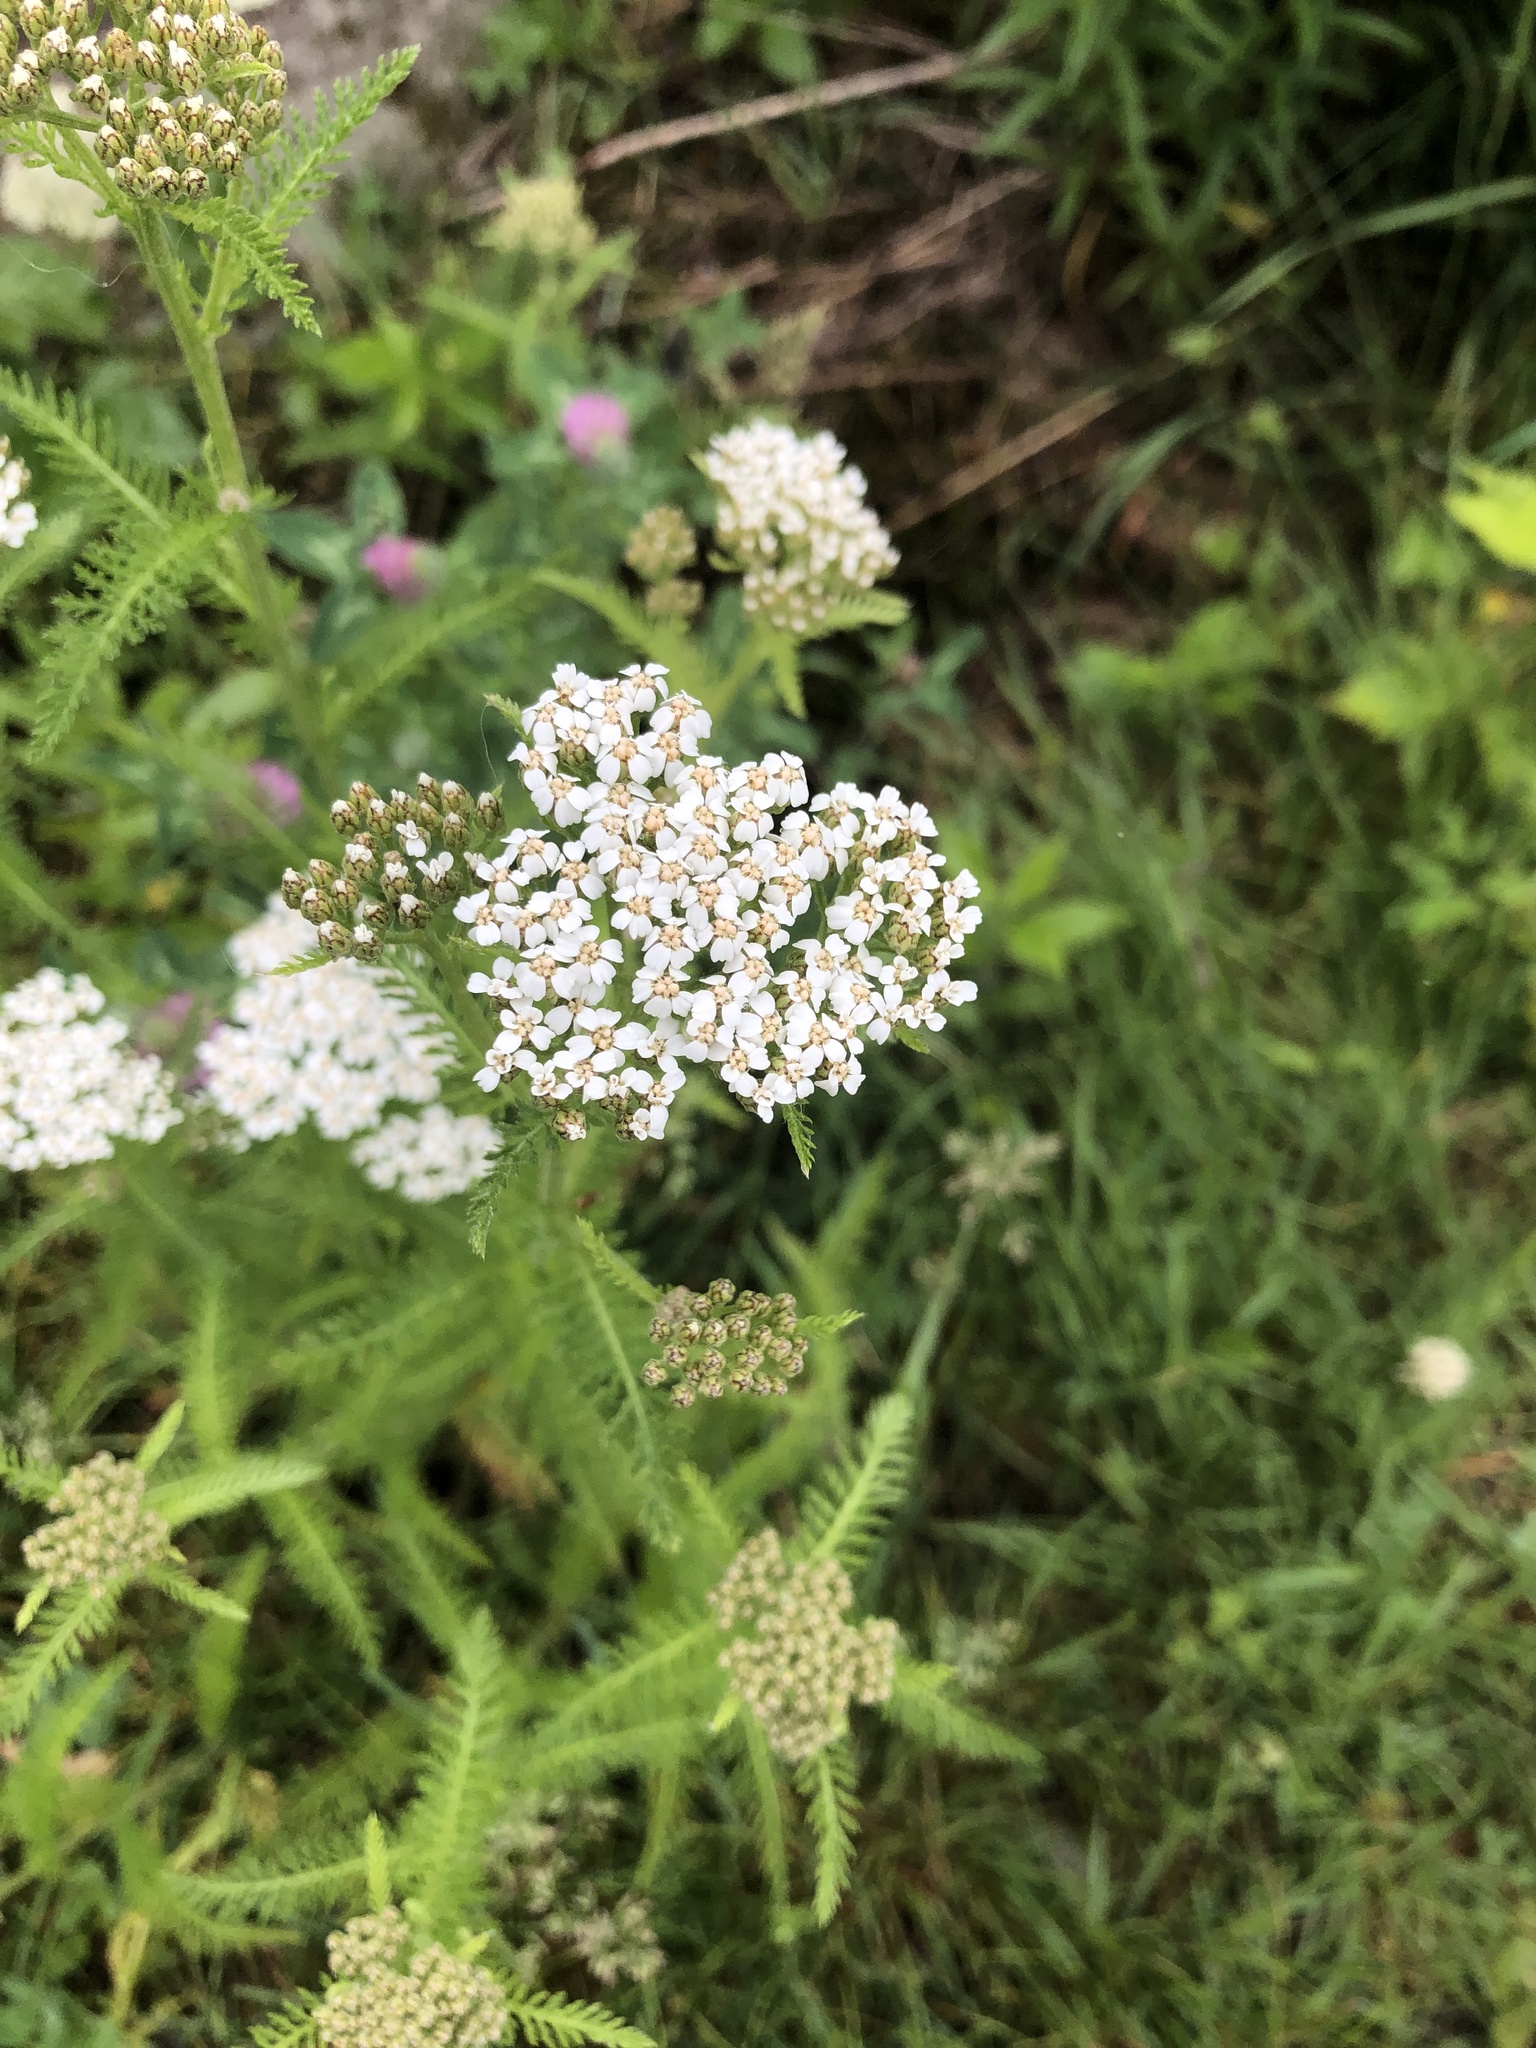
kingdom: Plantae
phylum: Tracheophyta
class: Magnoliopsida
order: Asterales
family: Asteraceae
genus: Achillea
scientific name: Achillea millefolium
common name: Yarrow
